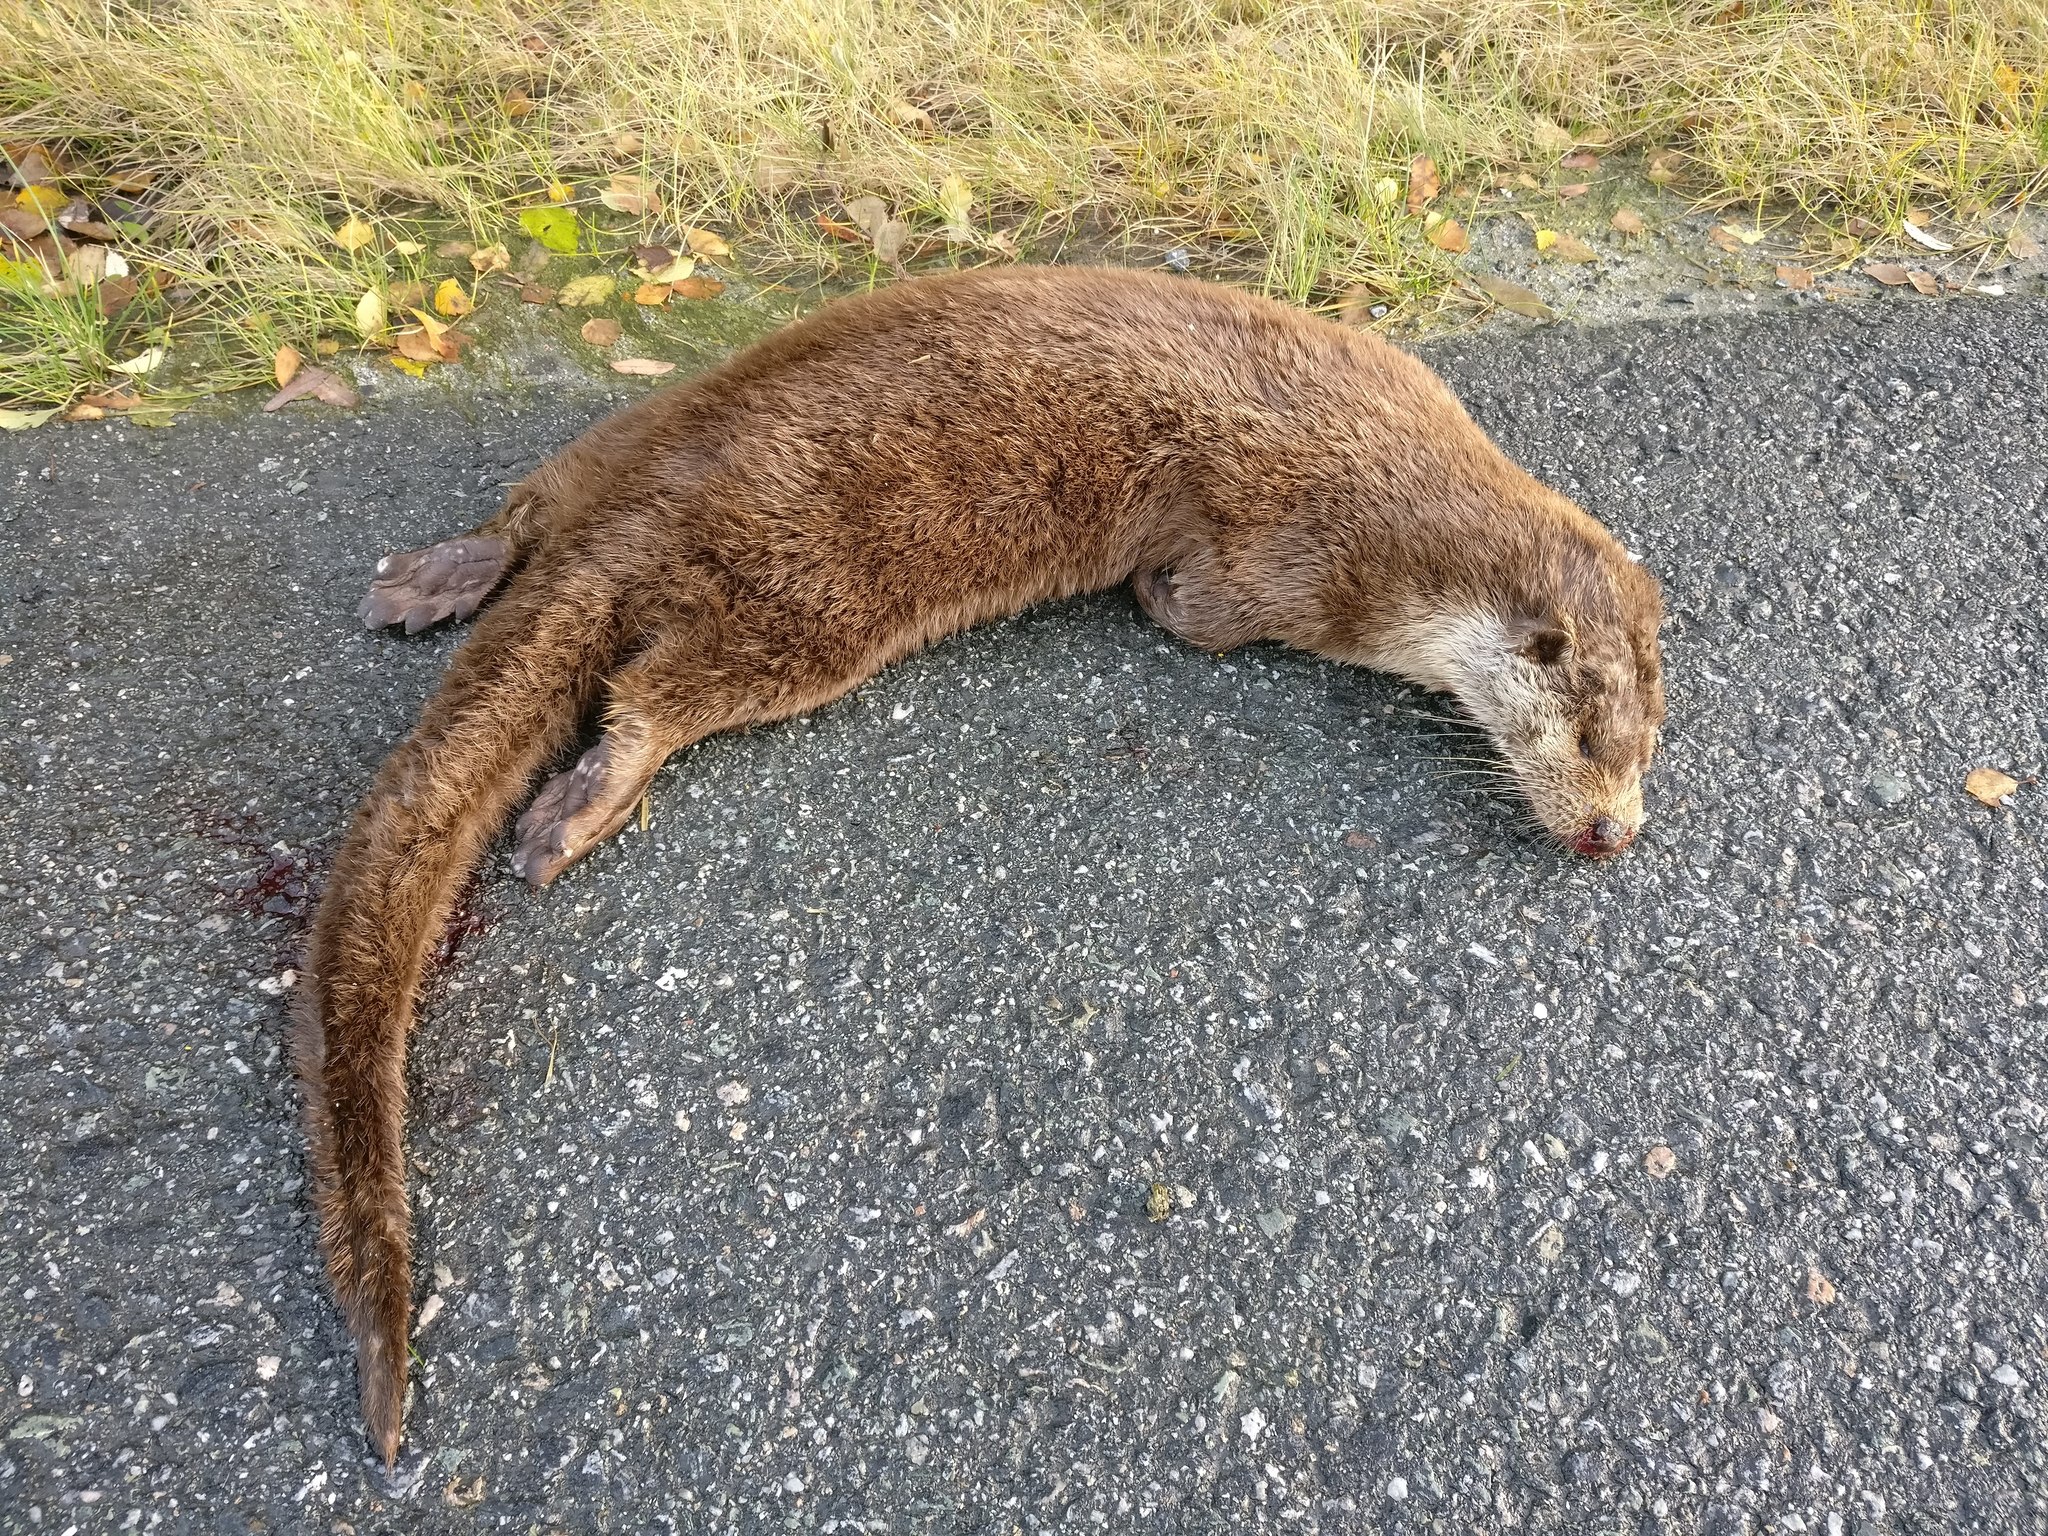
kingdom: Animalia
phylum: Chordata
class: Mammalia
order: Carnivora
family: Mustelidae
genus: Lutra
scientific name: Lutra lutra
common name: European otter
